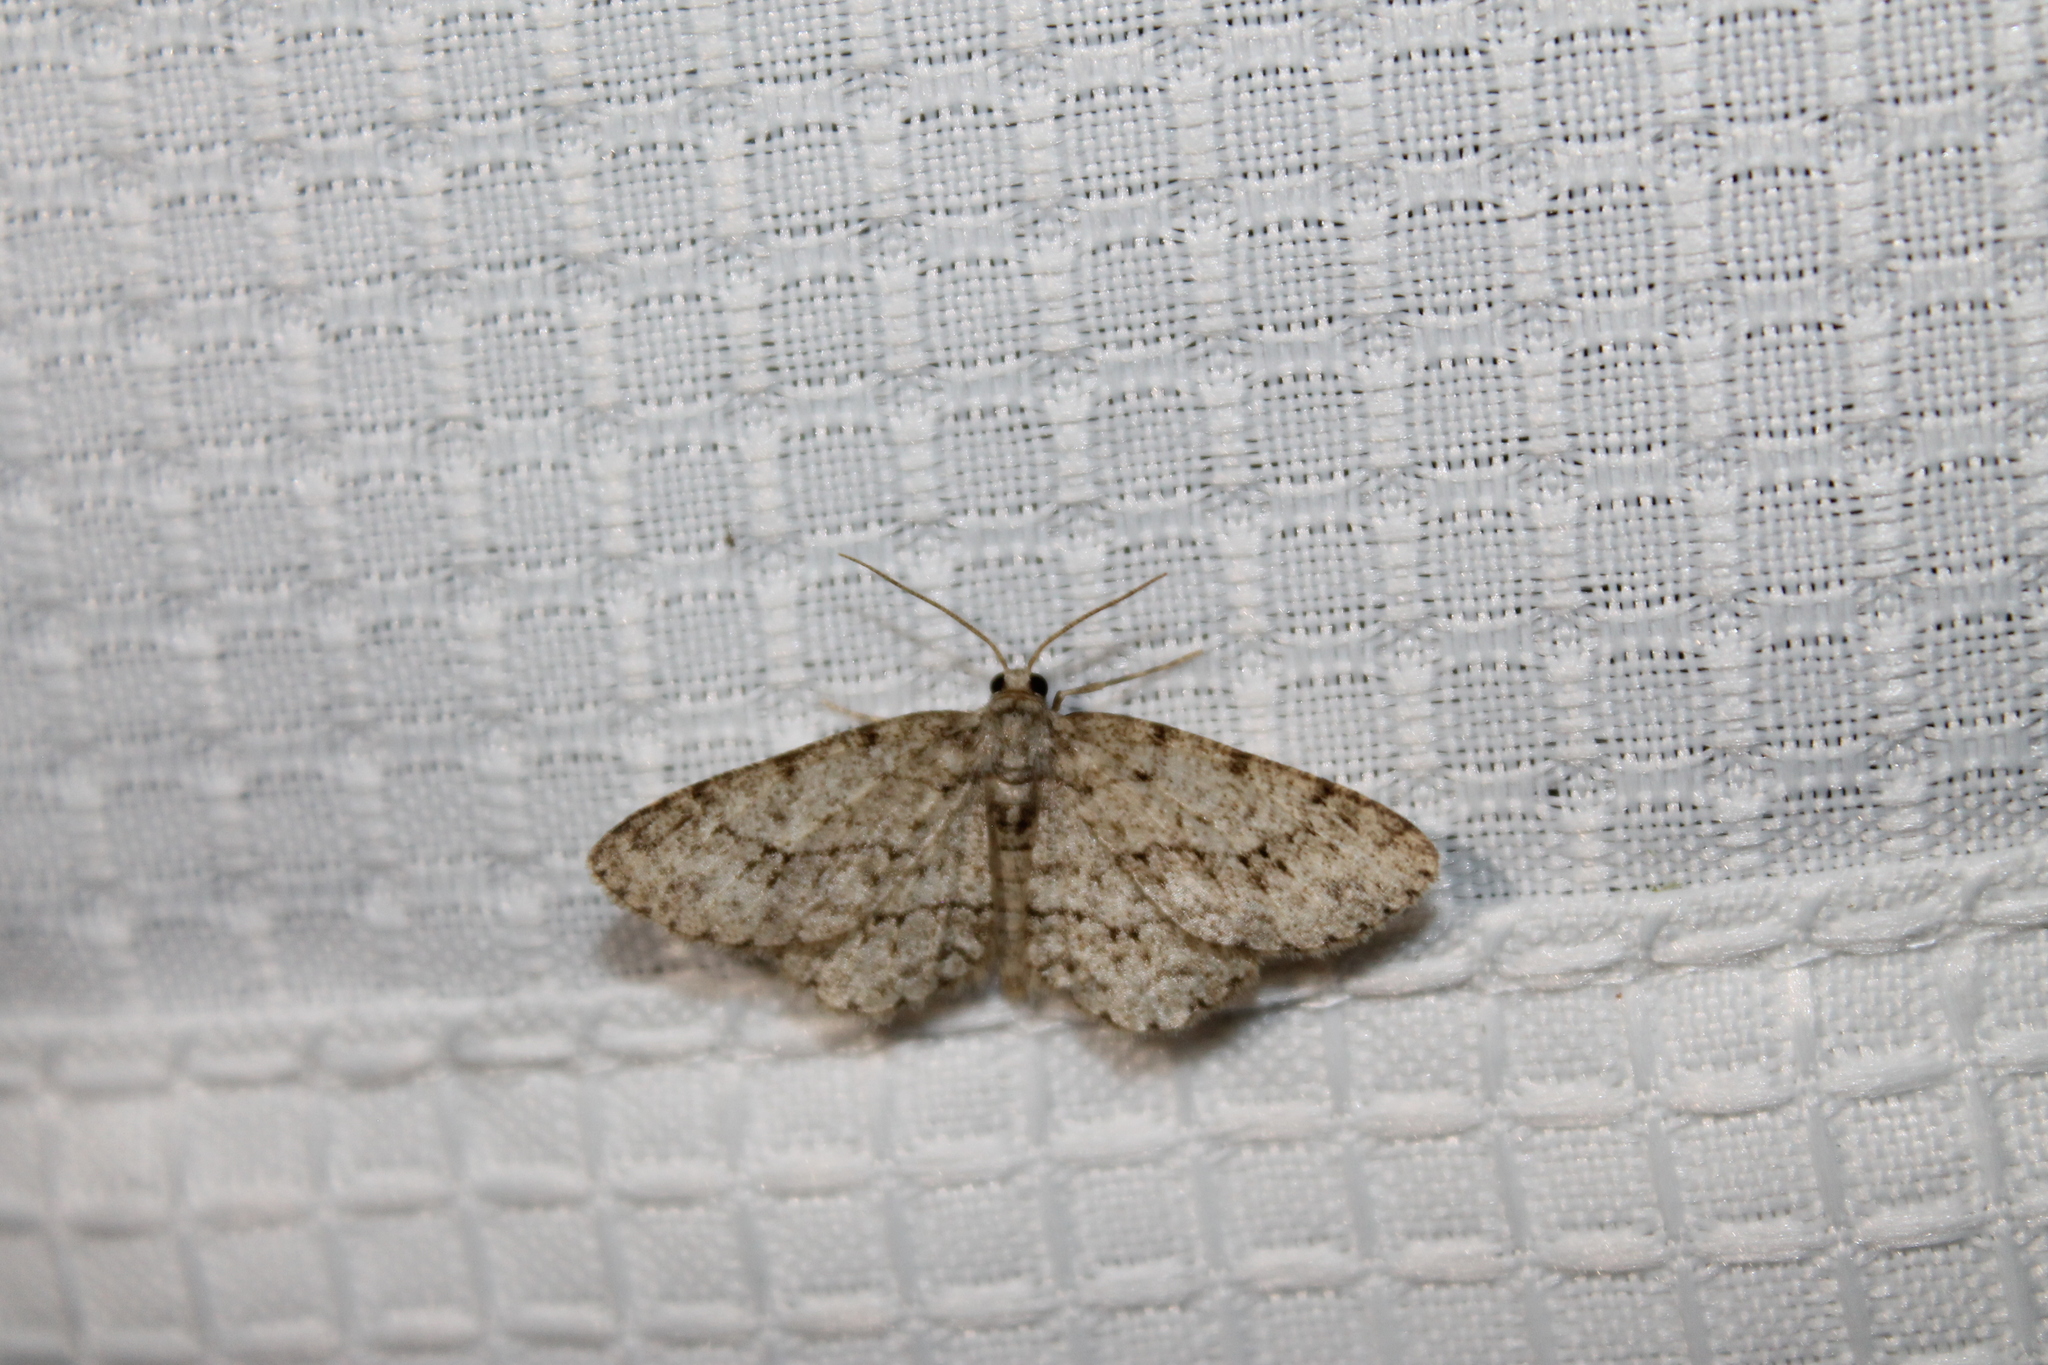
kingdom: Animalia
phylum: Arthropoda
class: Insecta
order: Lepidoptera
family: Geometridae
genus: Ectropis
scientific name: Ectropis crepuscularia
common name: Engrailed
